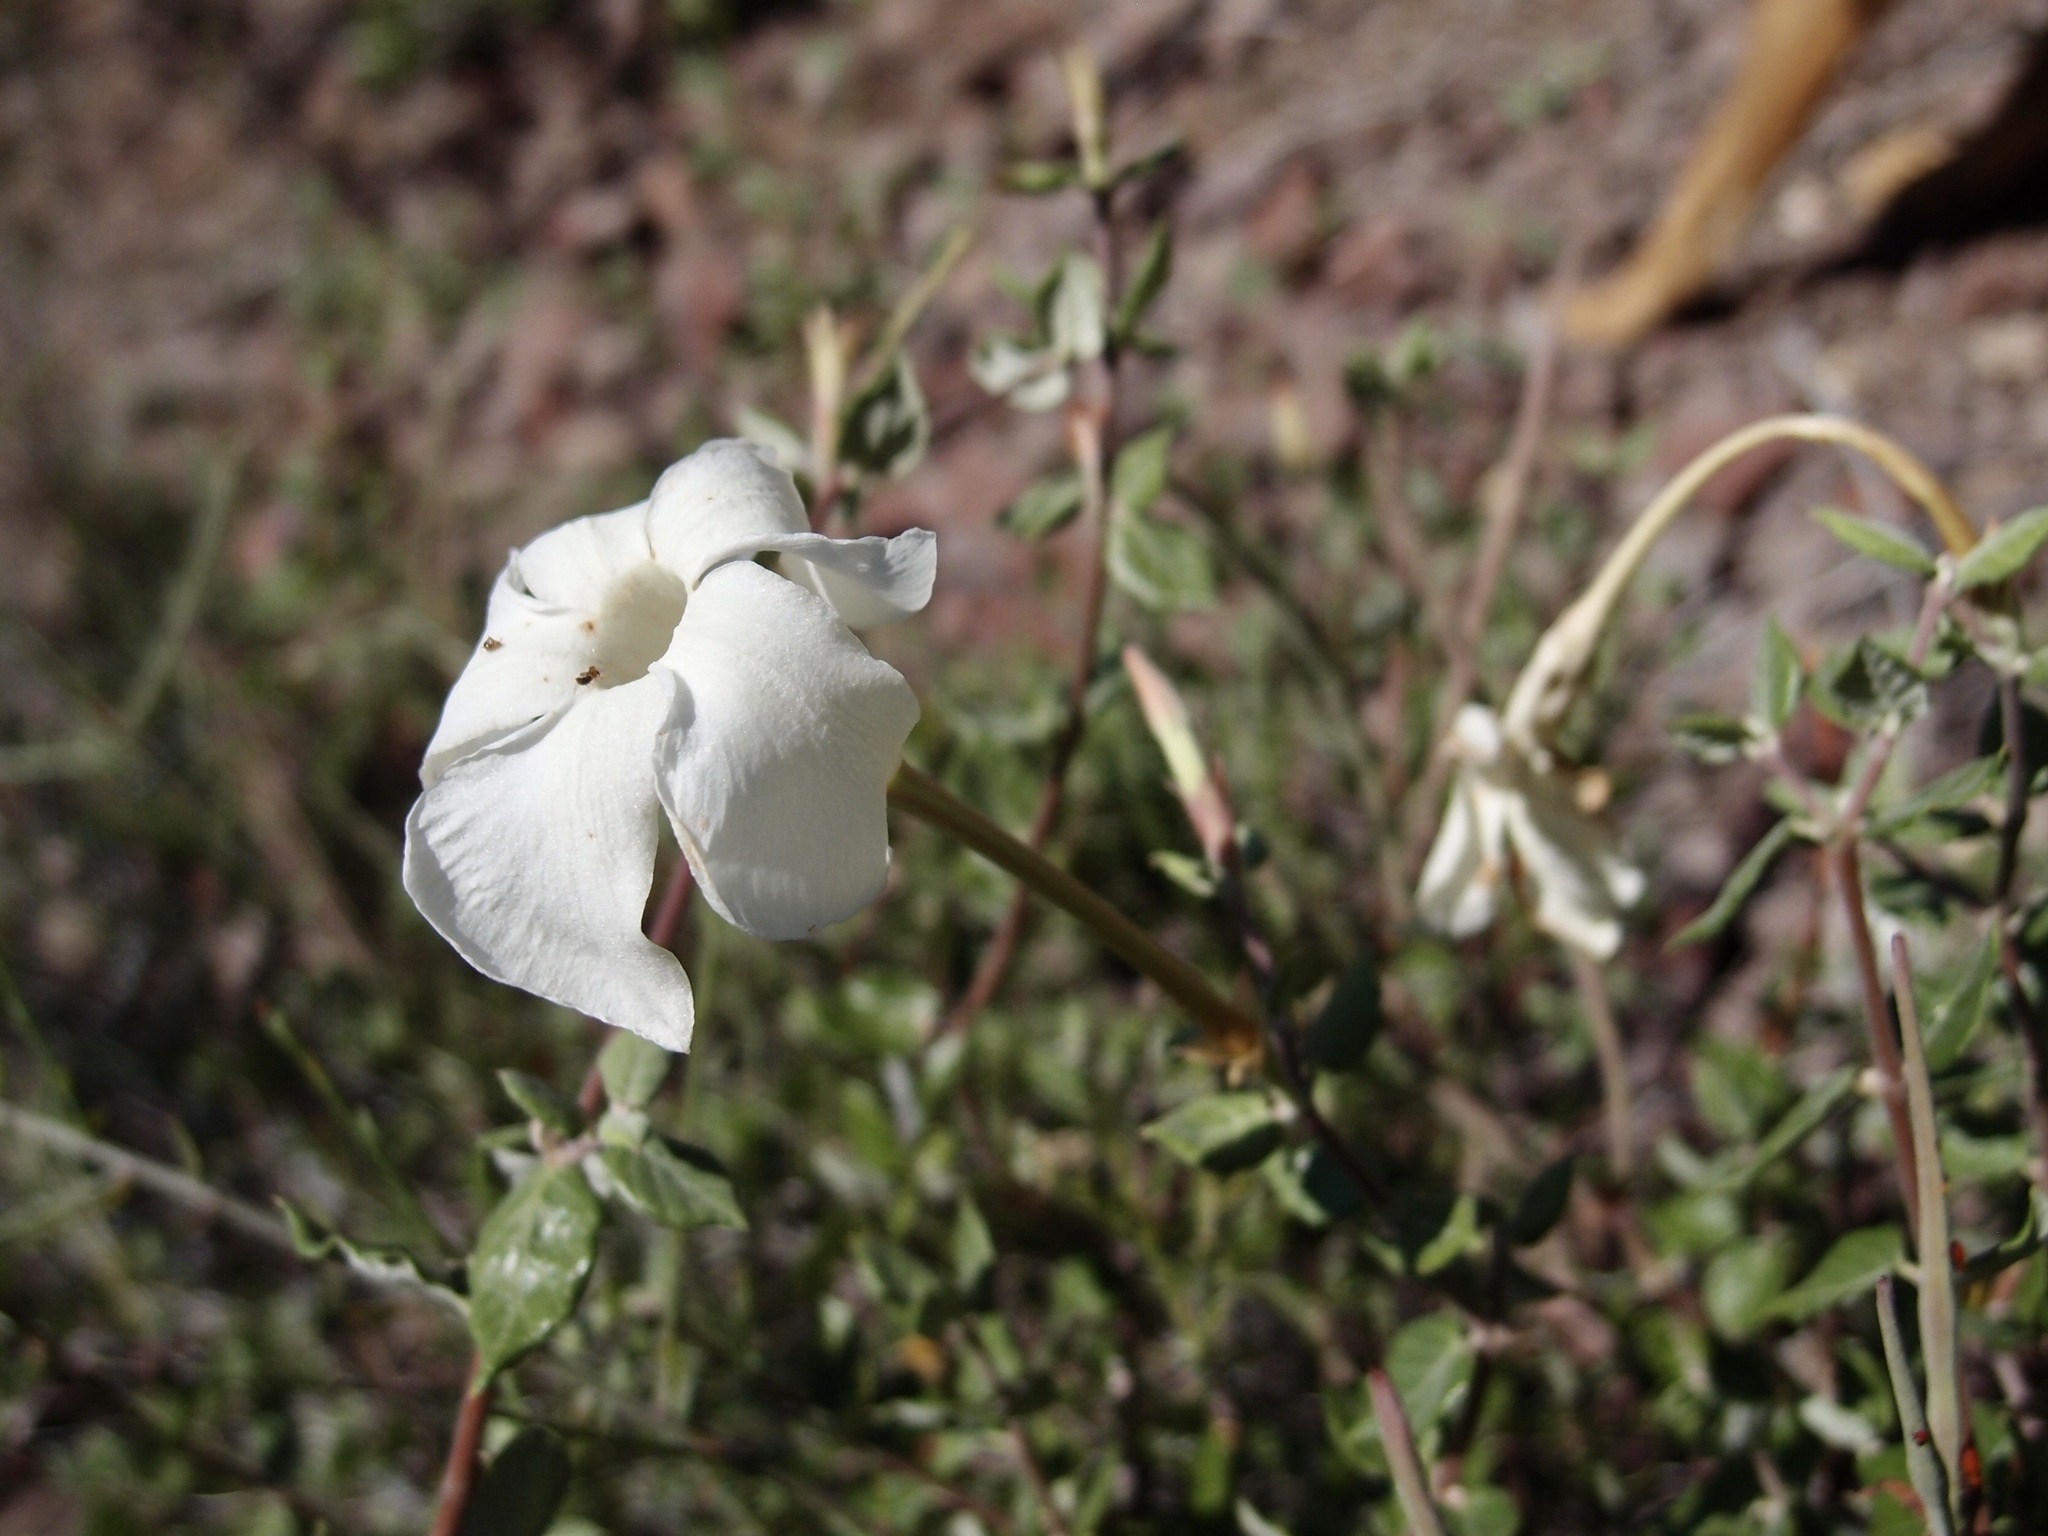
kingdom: Plantae
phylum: Tracheophyta
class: Magnoliopsida
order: Gentianales
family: Apocynaceae
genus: Mandevilla
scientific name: Mandevilla nacapulensis
